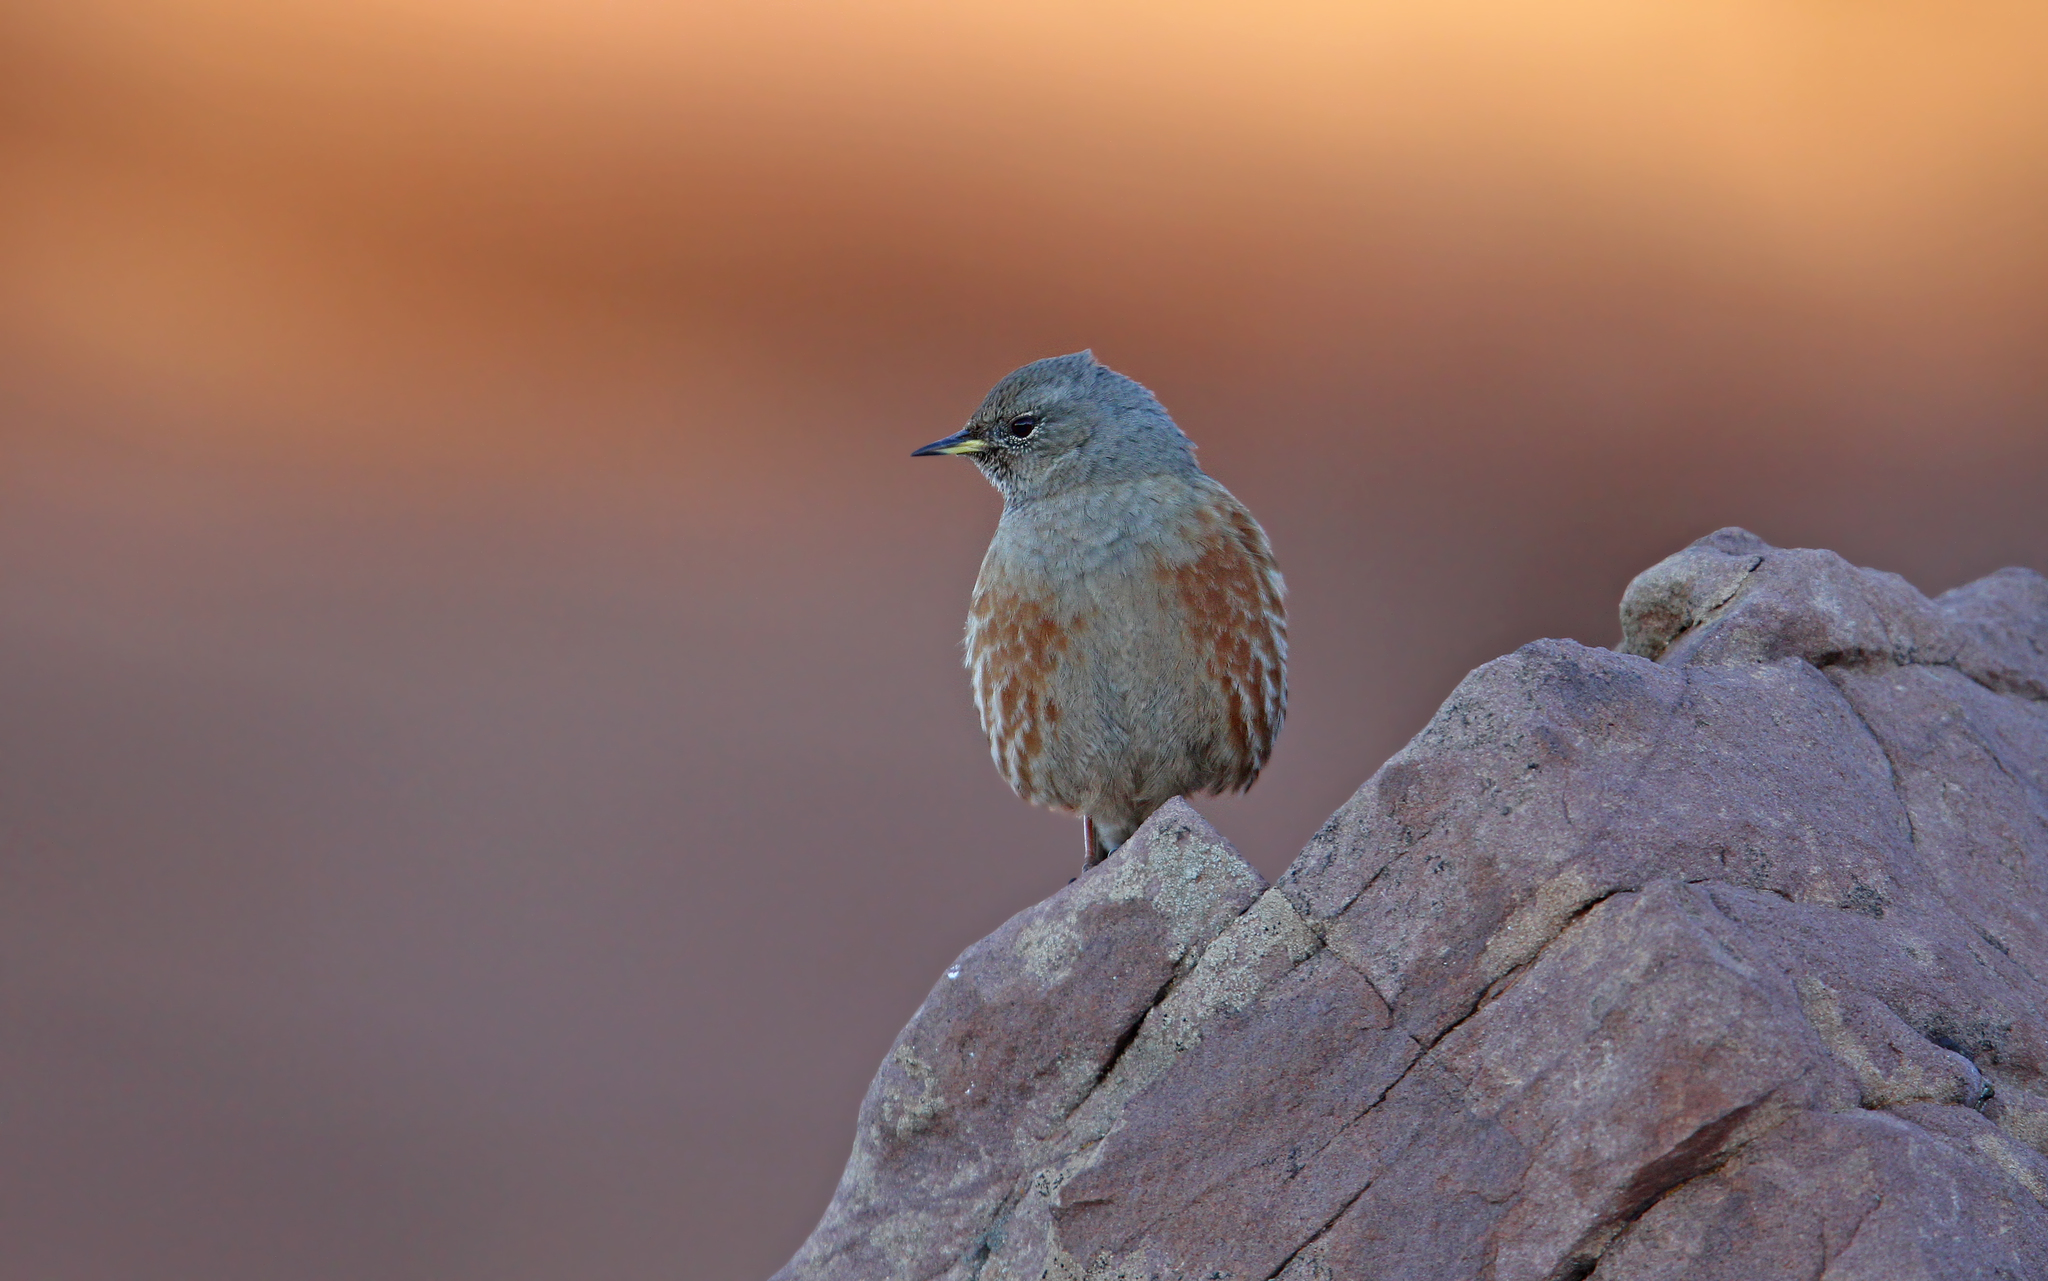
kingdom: Animalia
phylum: Chordata
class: Aves
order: Passeriformes
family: Prunellidae
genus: Prunella
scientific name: Prunella collaris
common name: Alpine accentor
